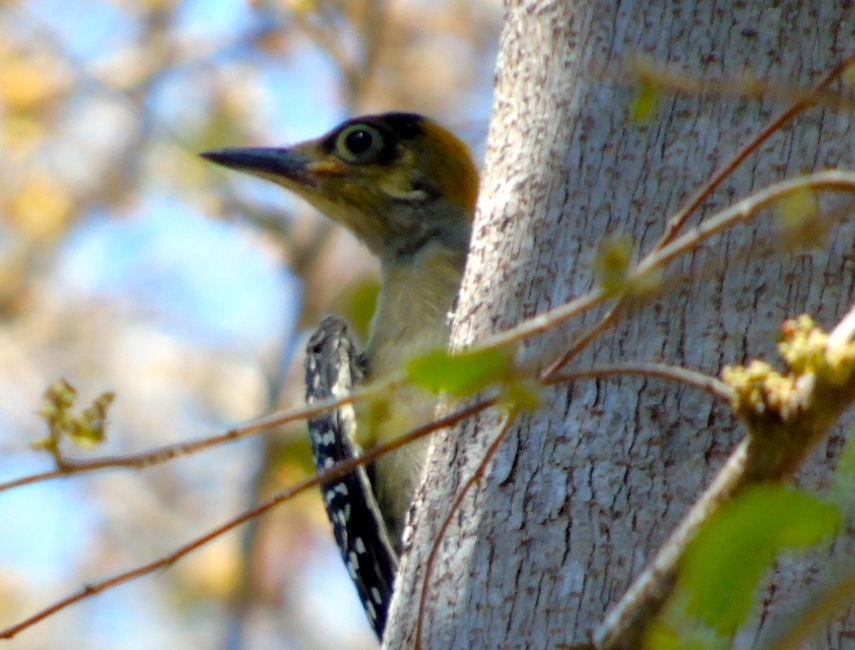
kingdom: Animalia
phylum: Chordata
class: Aves
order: Piciformes
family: Picidae
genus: Melanerpes
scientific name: Melanerpes chrysogenys
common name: Golden-cheeked woodpecker
